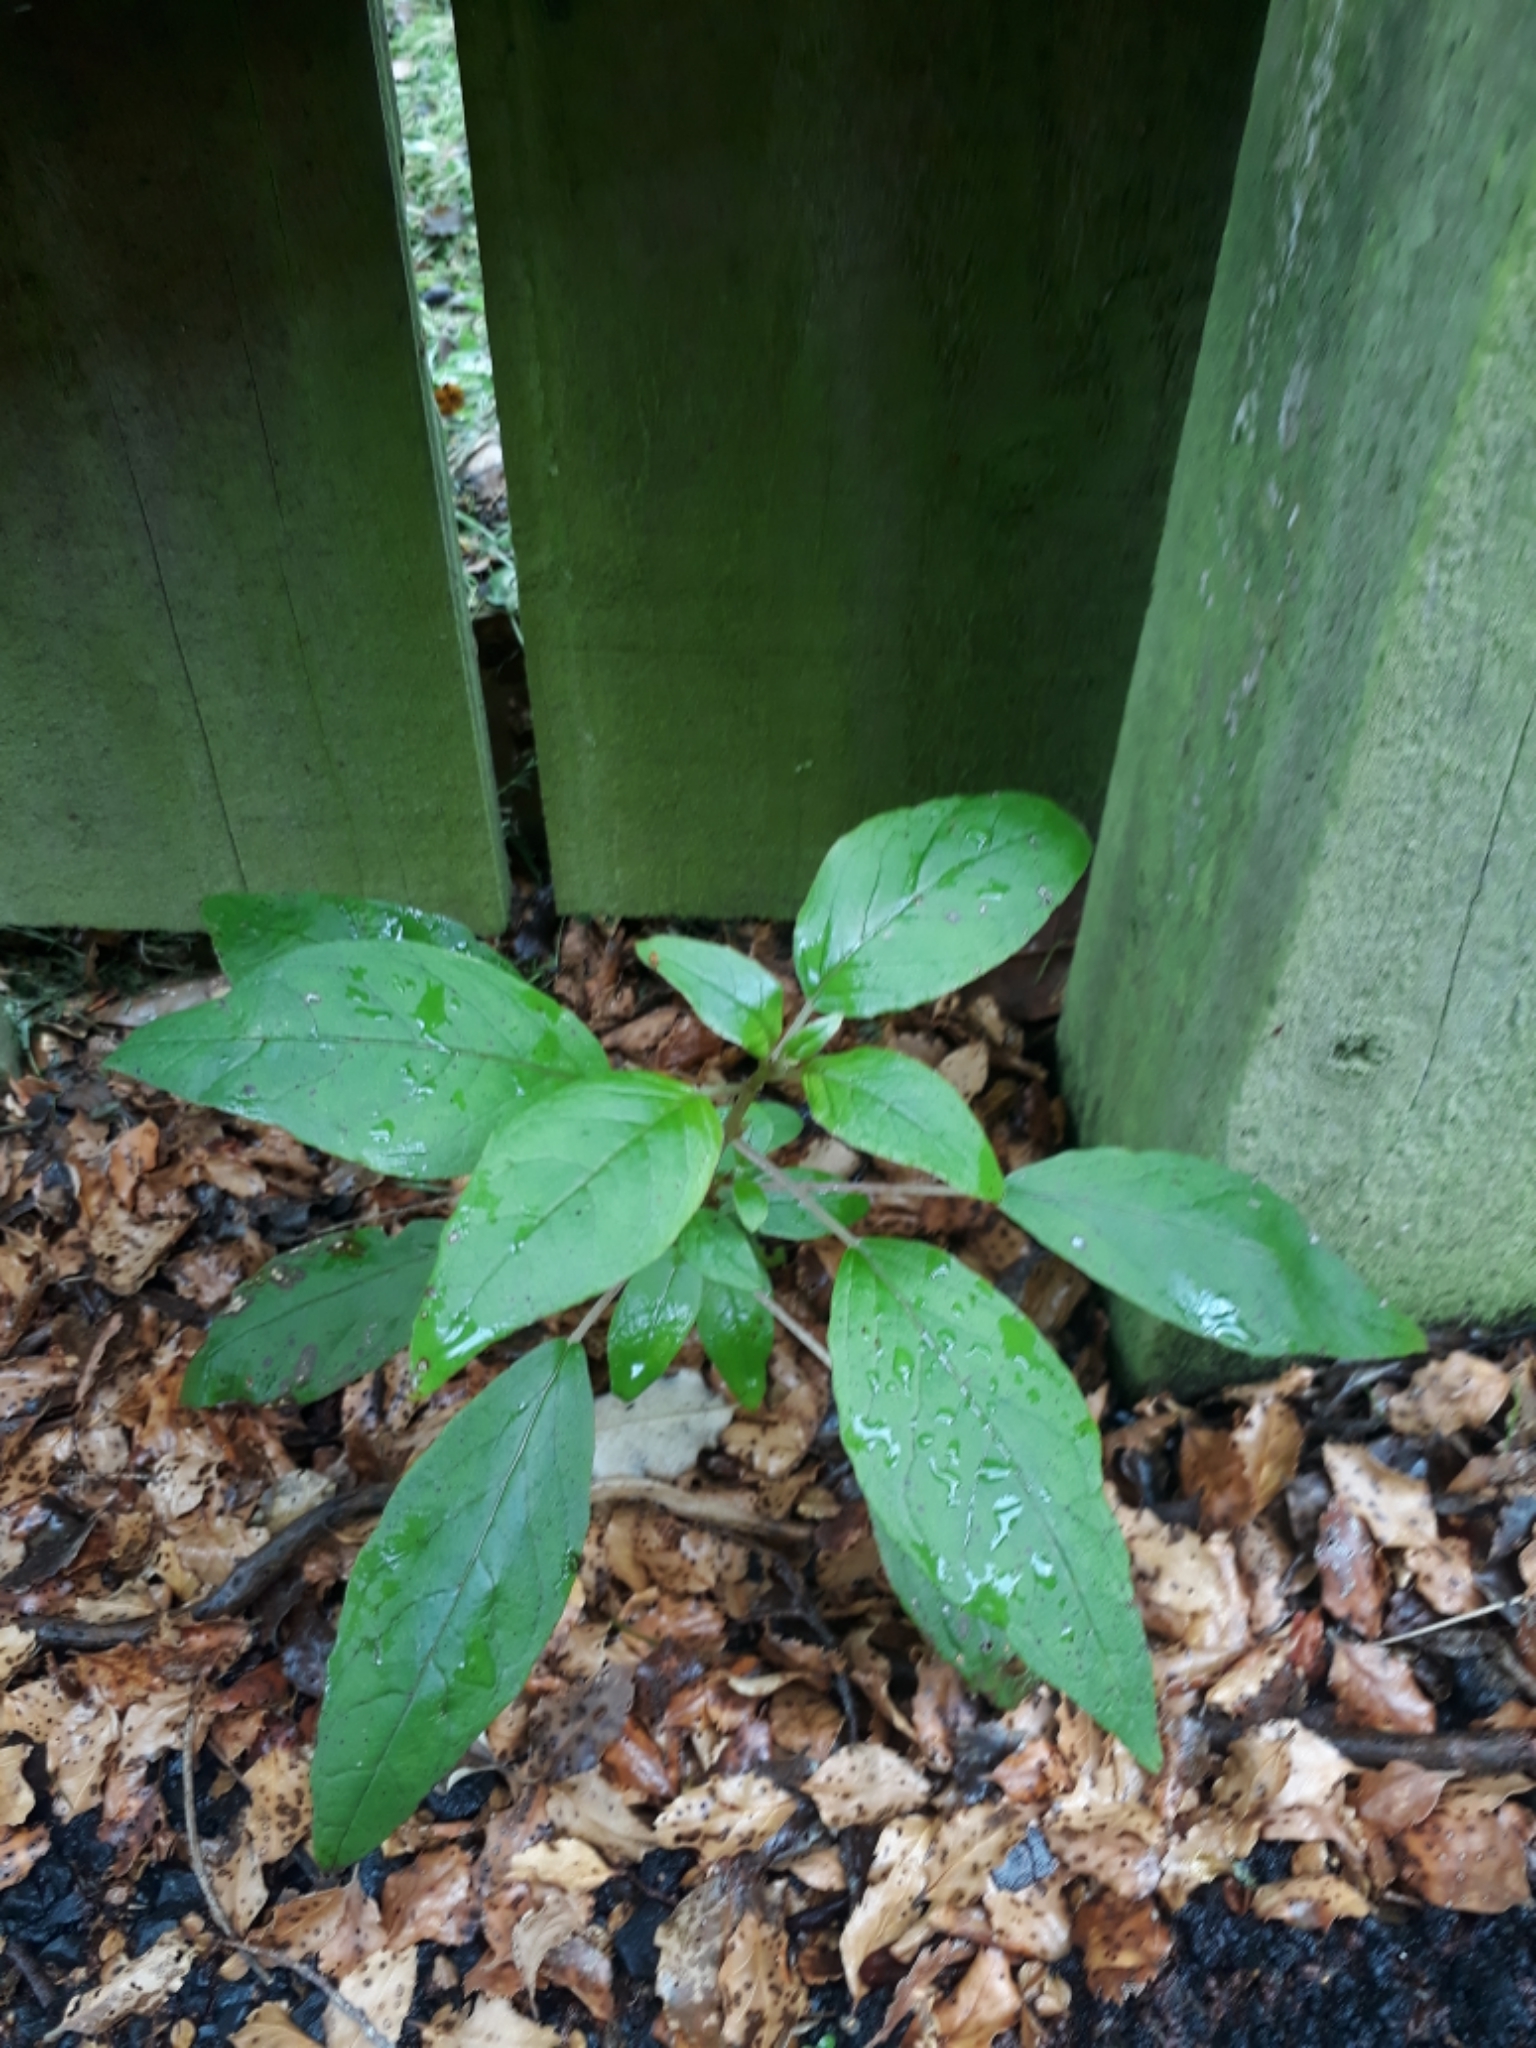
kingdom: Plantae
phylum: Tracheophyta
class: Magnoliopsida
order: Myrtales
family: Onagraceae
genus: Fuchsia
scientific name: Fuchsia excorticata
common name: Tree fuchsia
